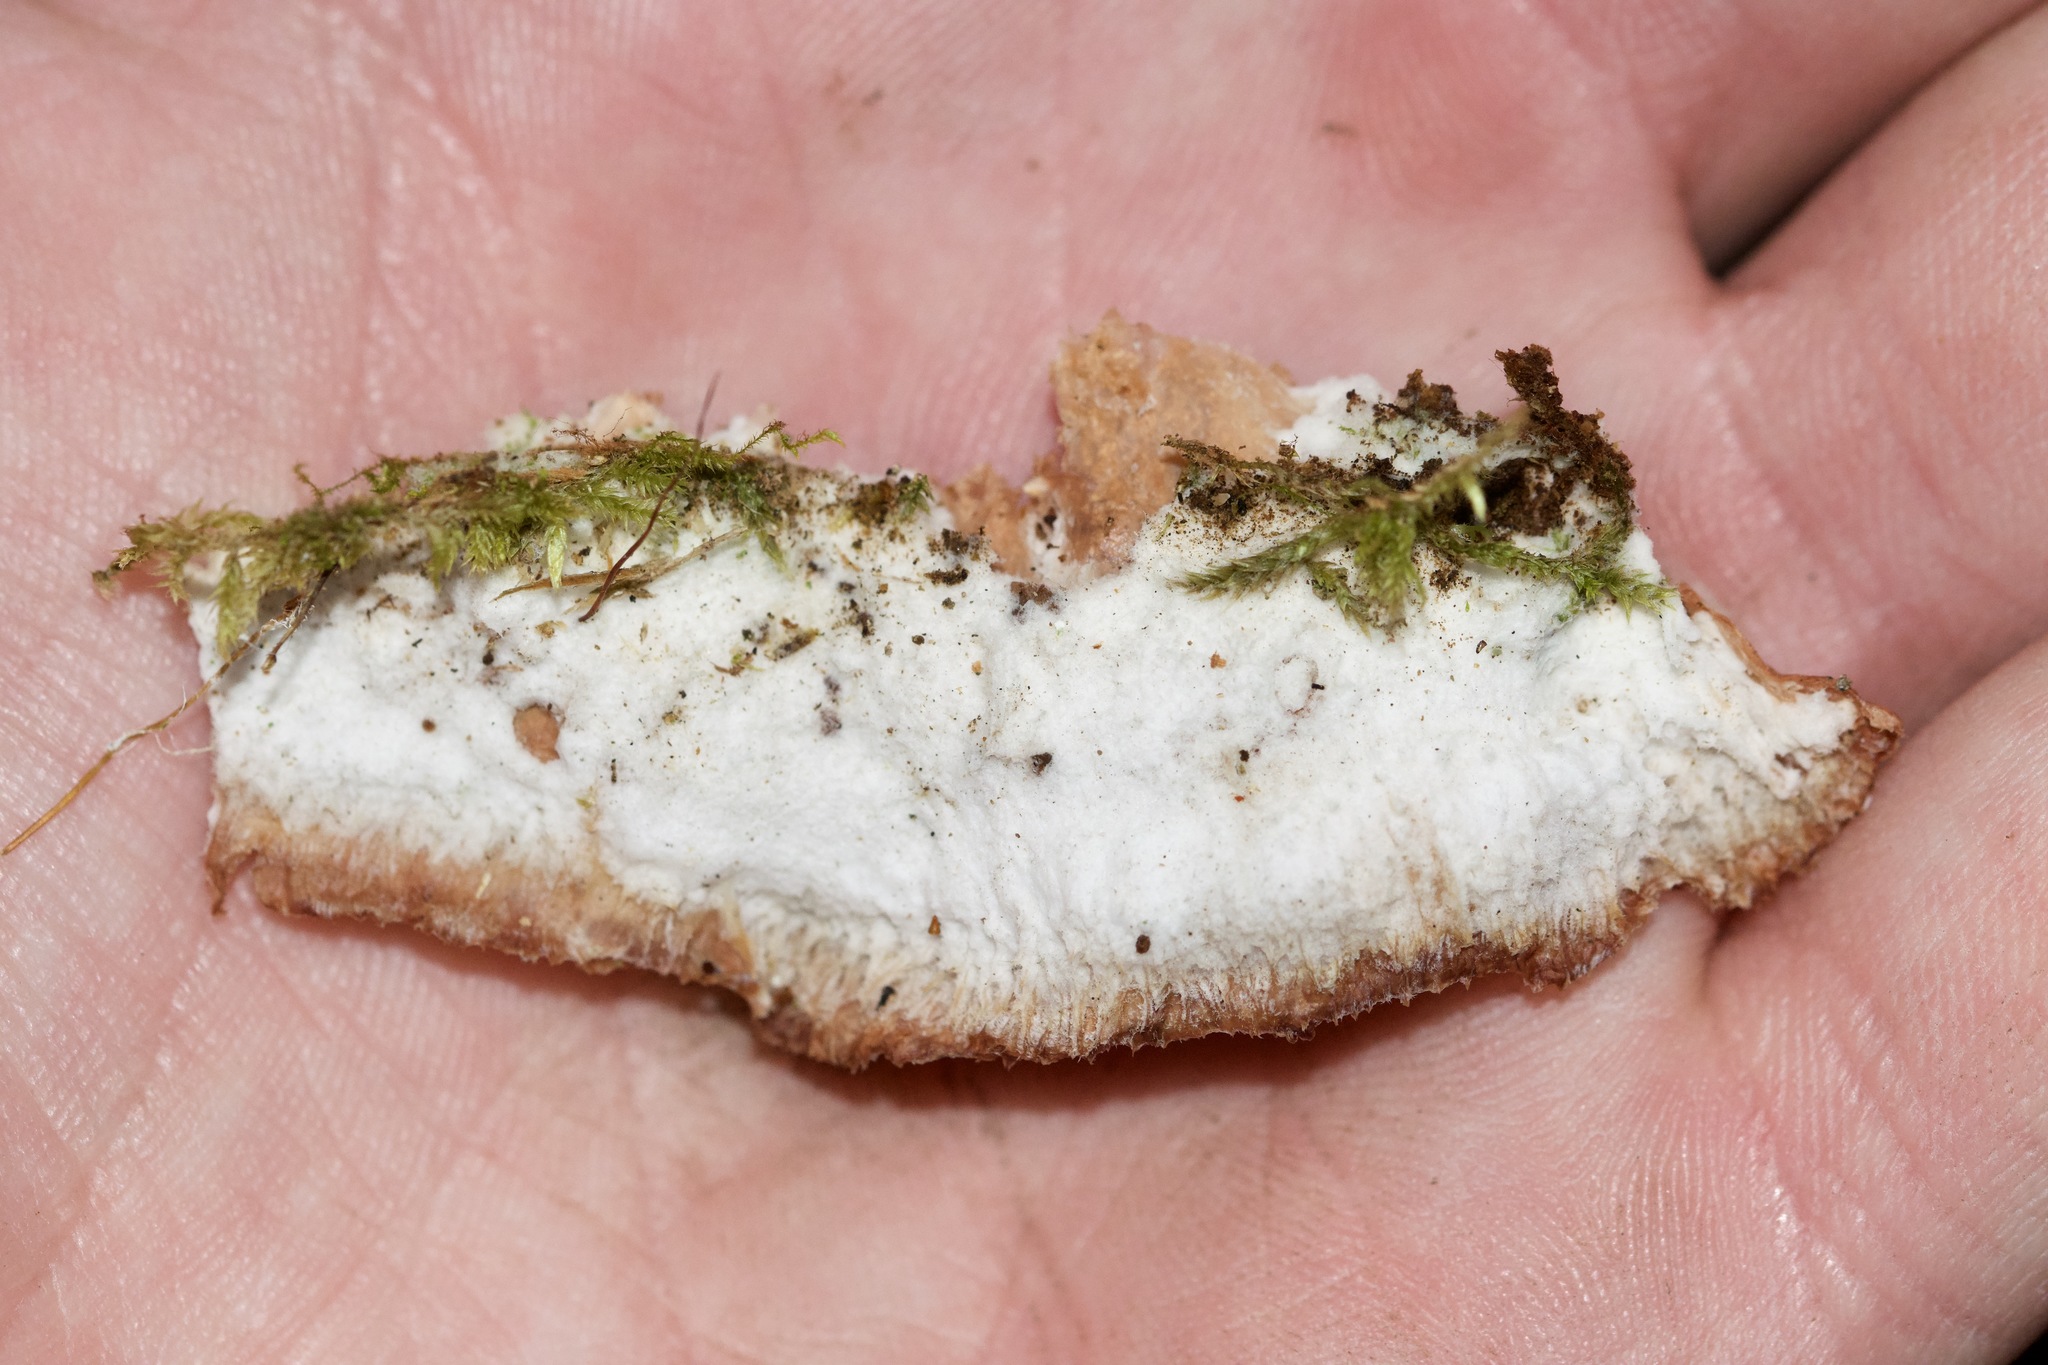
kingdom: Fungi
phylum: Basidiomycota
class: Agaricomycetes
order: Polyporales
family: Meruliaceae
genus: Phlebia
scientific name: Phlebia tremellosa
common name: Jelly rot
